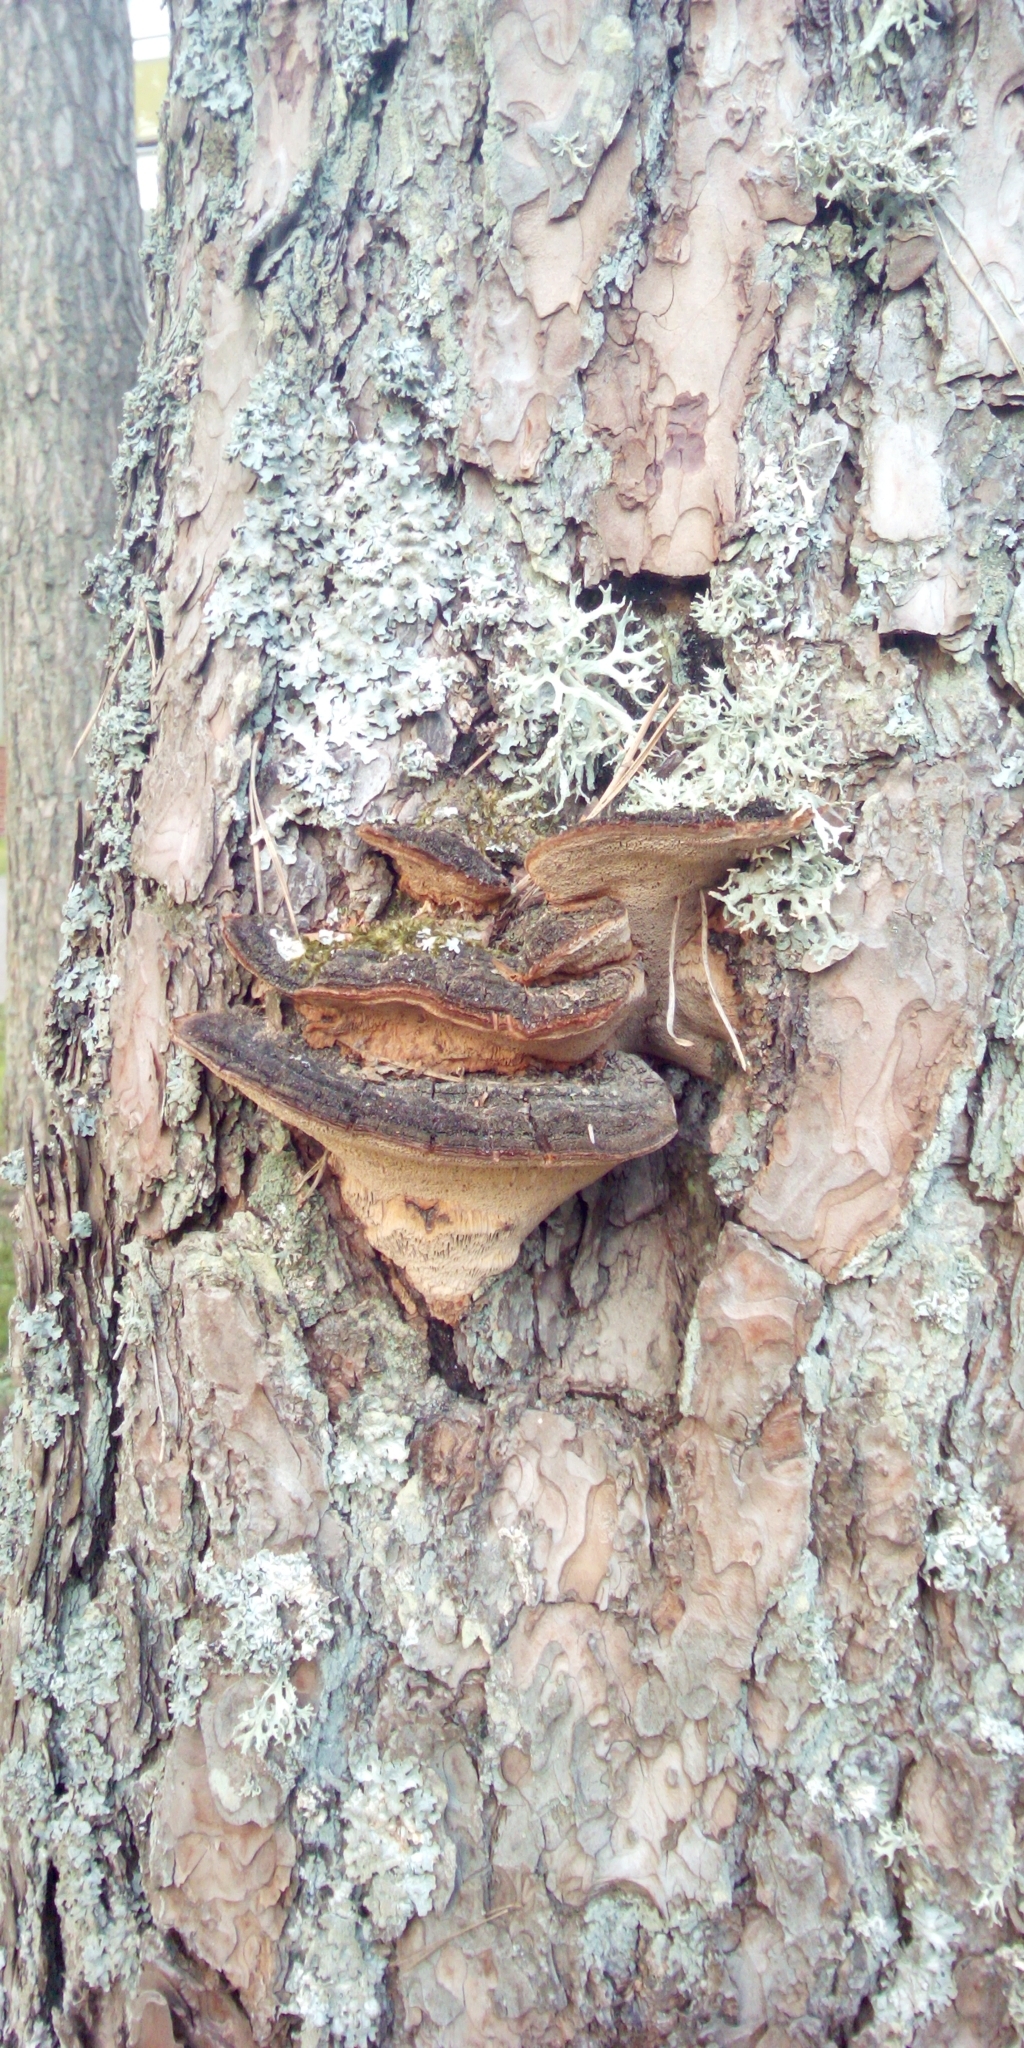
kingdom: Fungi
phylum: Basidiomycota
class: Agaricomycetes
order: Hymenochaetales
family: Hymenochaetaceae
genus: Porodaedalea
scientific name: Porodaedalea pini
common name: Pine bracket
